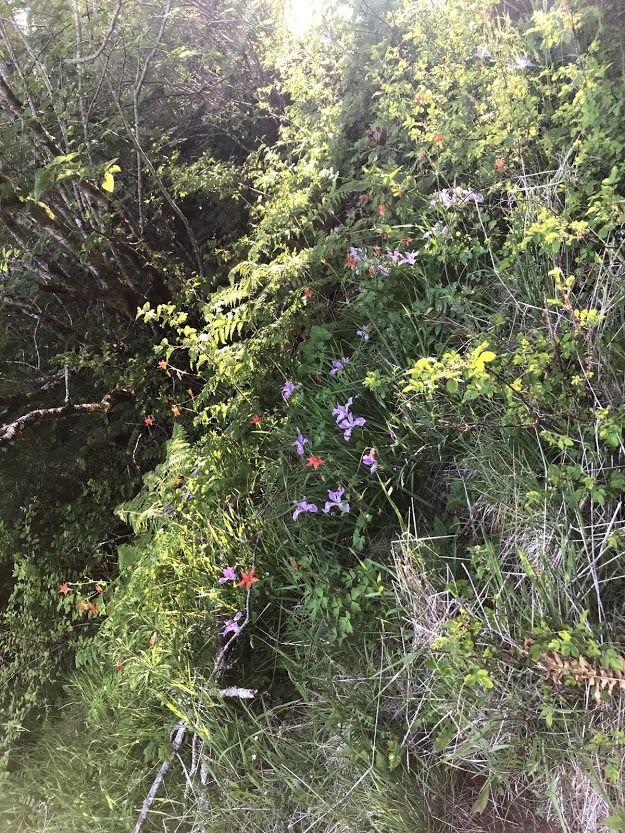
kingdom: Plantae
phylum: Tracheophyta
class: Liliopsida
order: Asparagales
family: Iridaceae
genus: Iris
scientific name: Iris tenax
